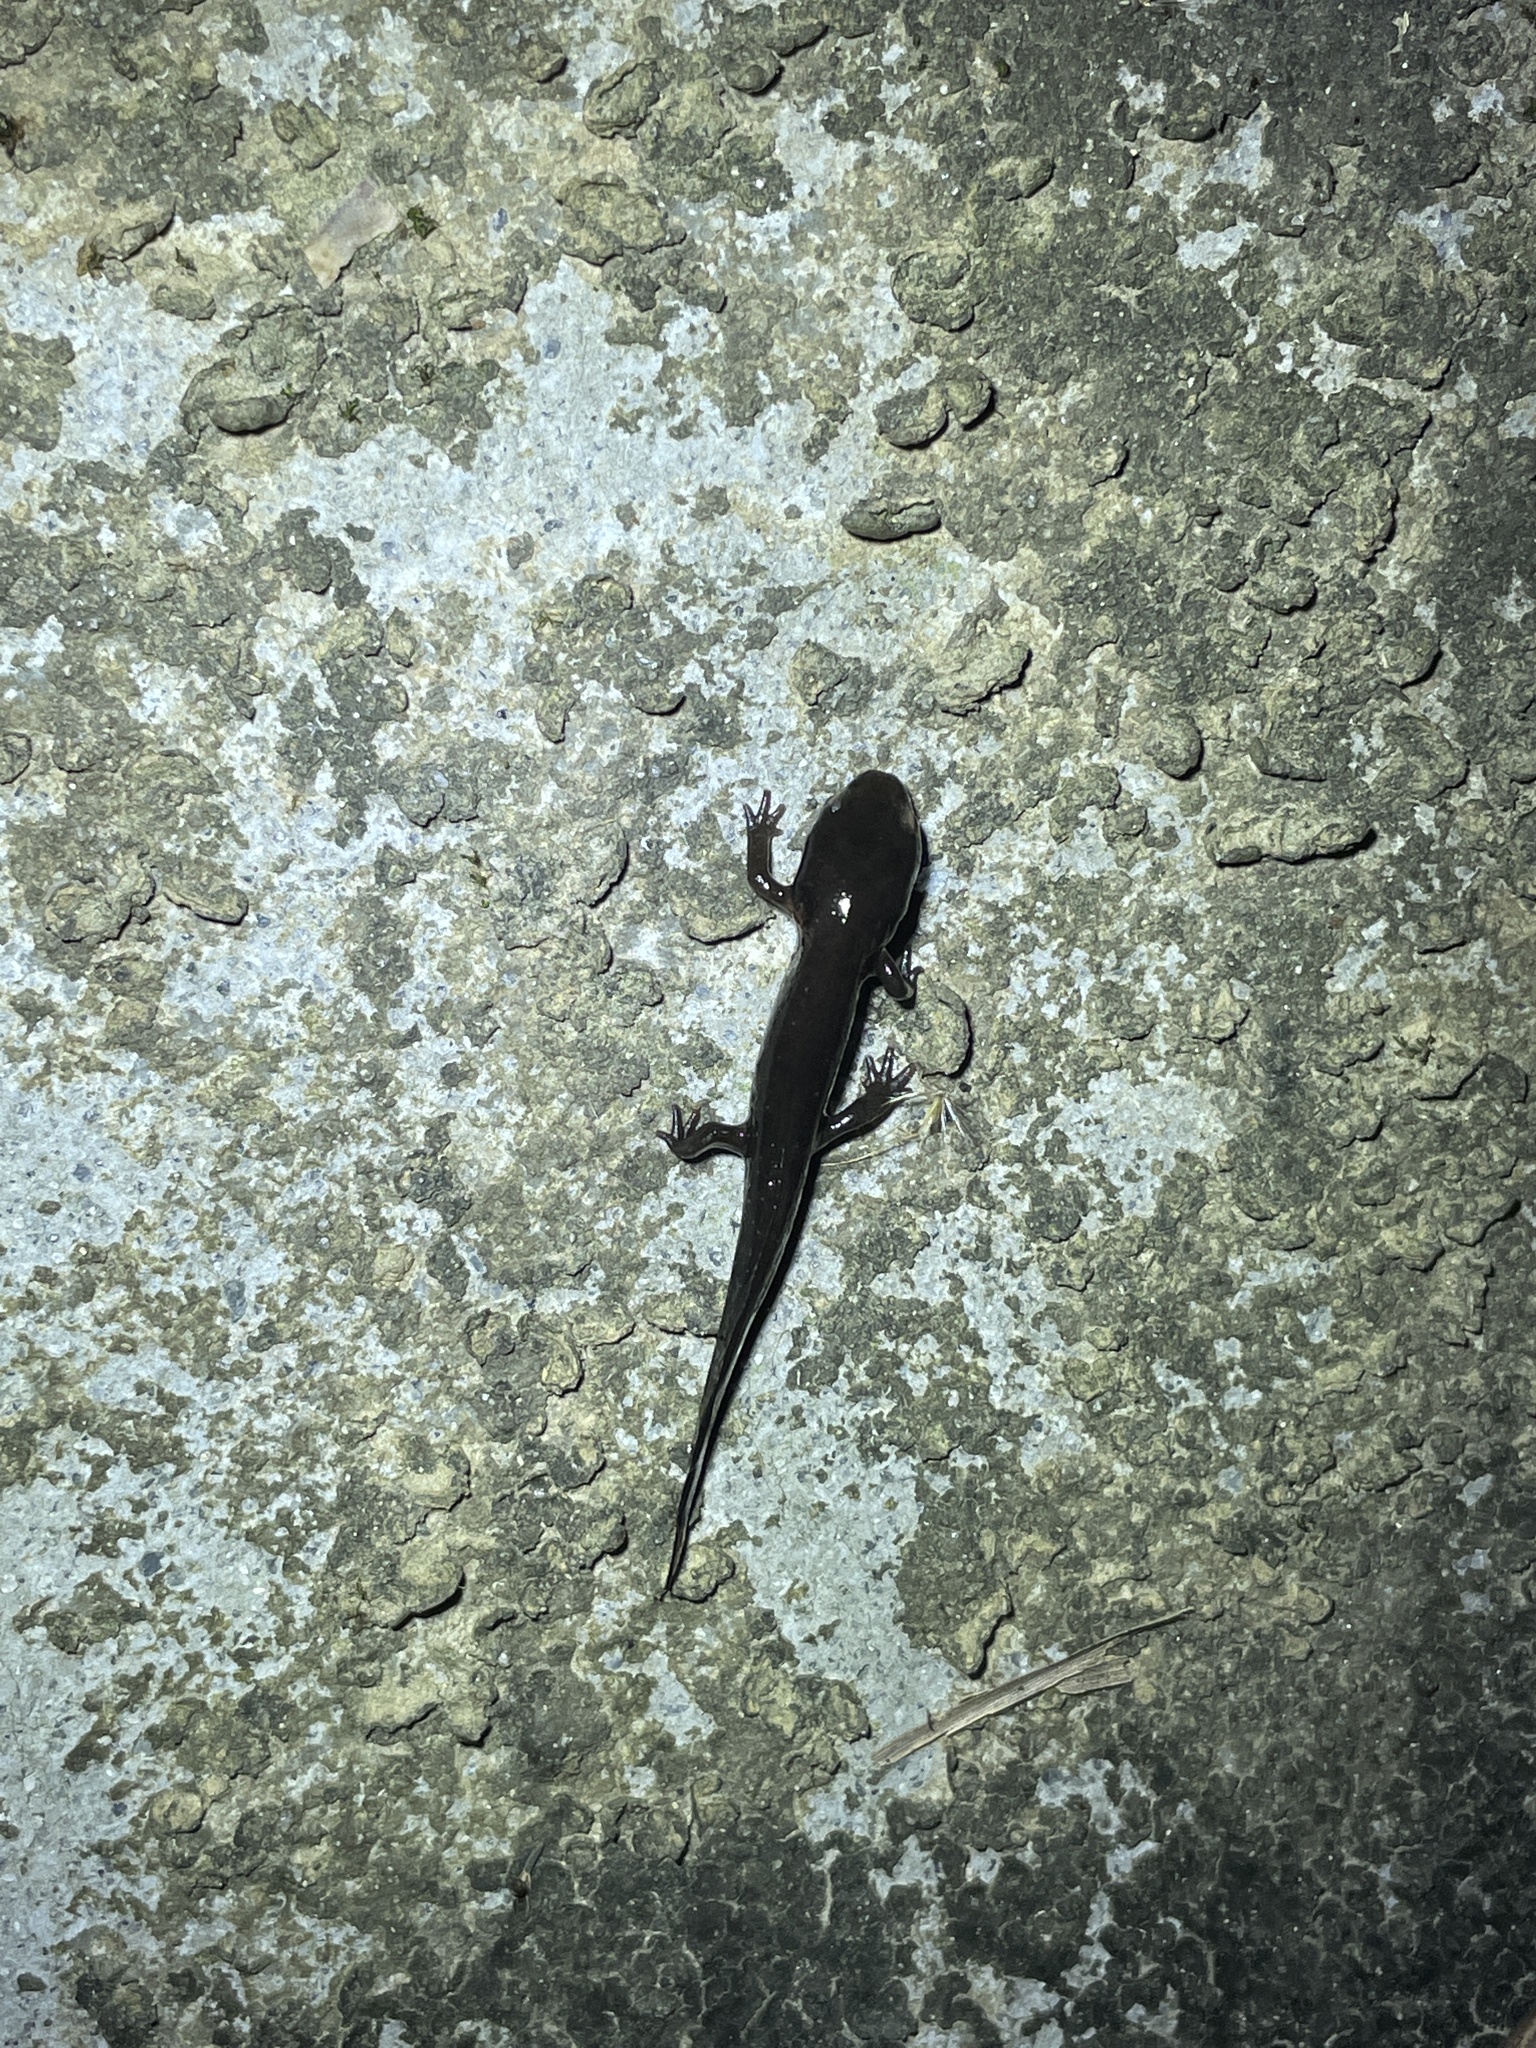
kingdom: Animalia
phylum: Chordata
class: Amphibia
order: Caudata
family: Salamandridae
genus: Paramesotriton
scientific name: Paramesotriton hongkongensis
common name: Hong kong warty newt
